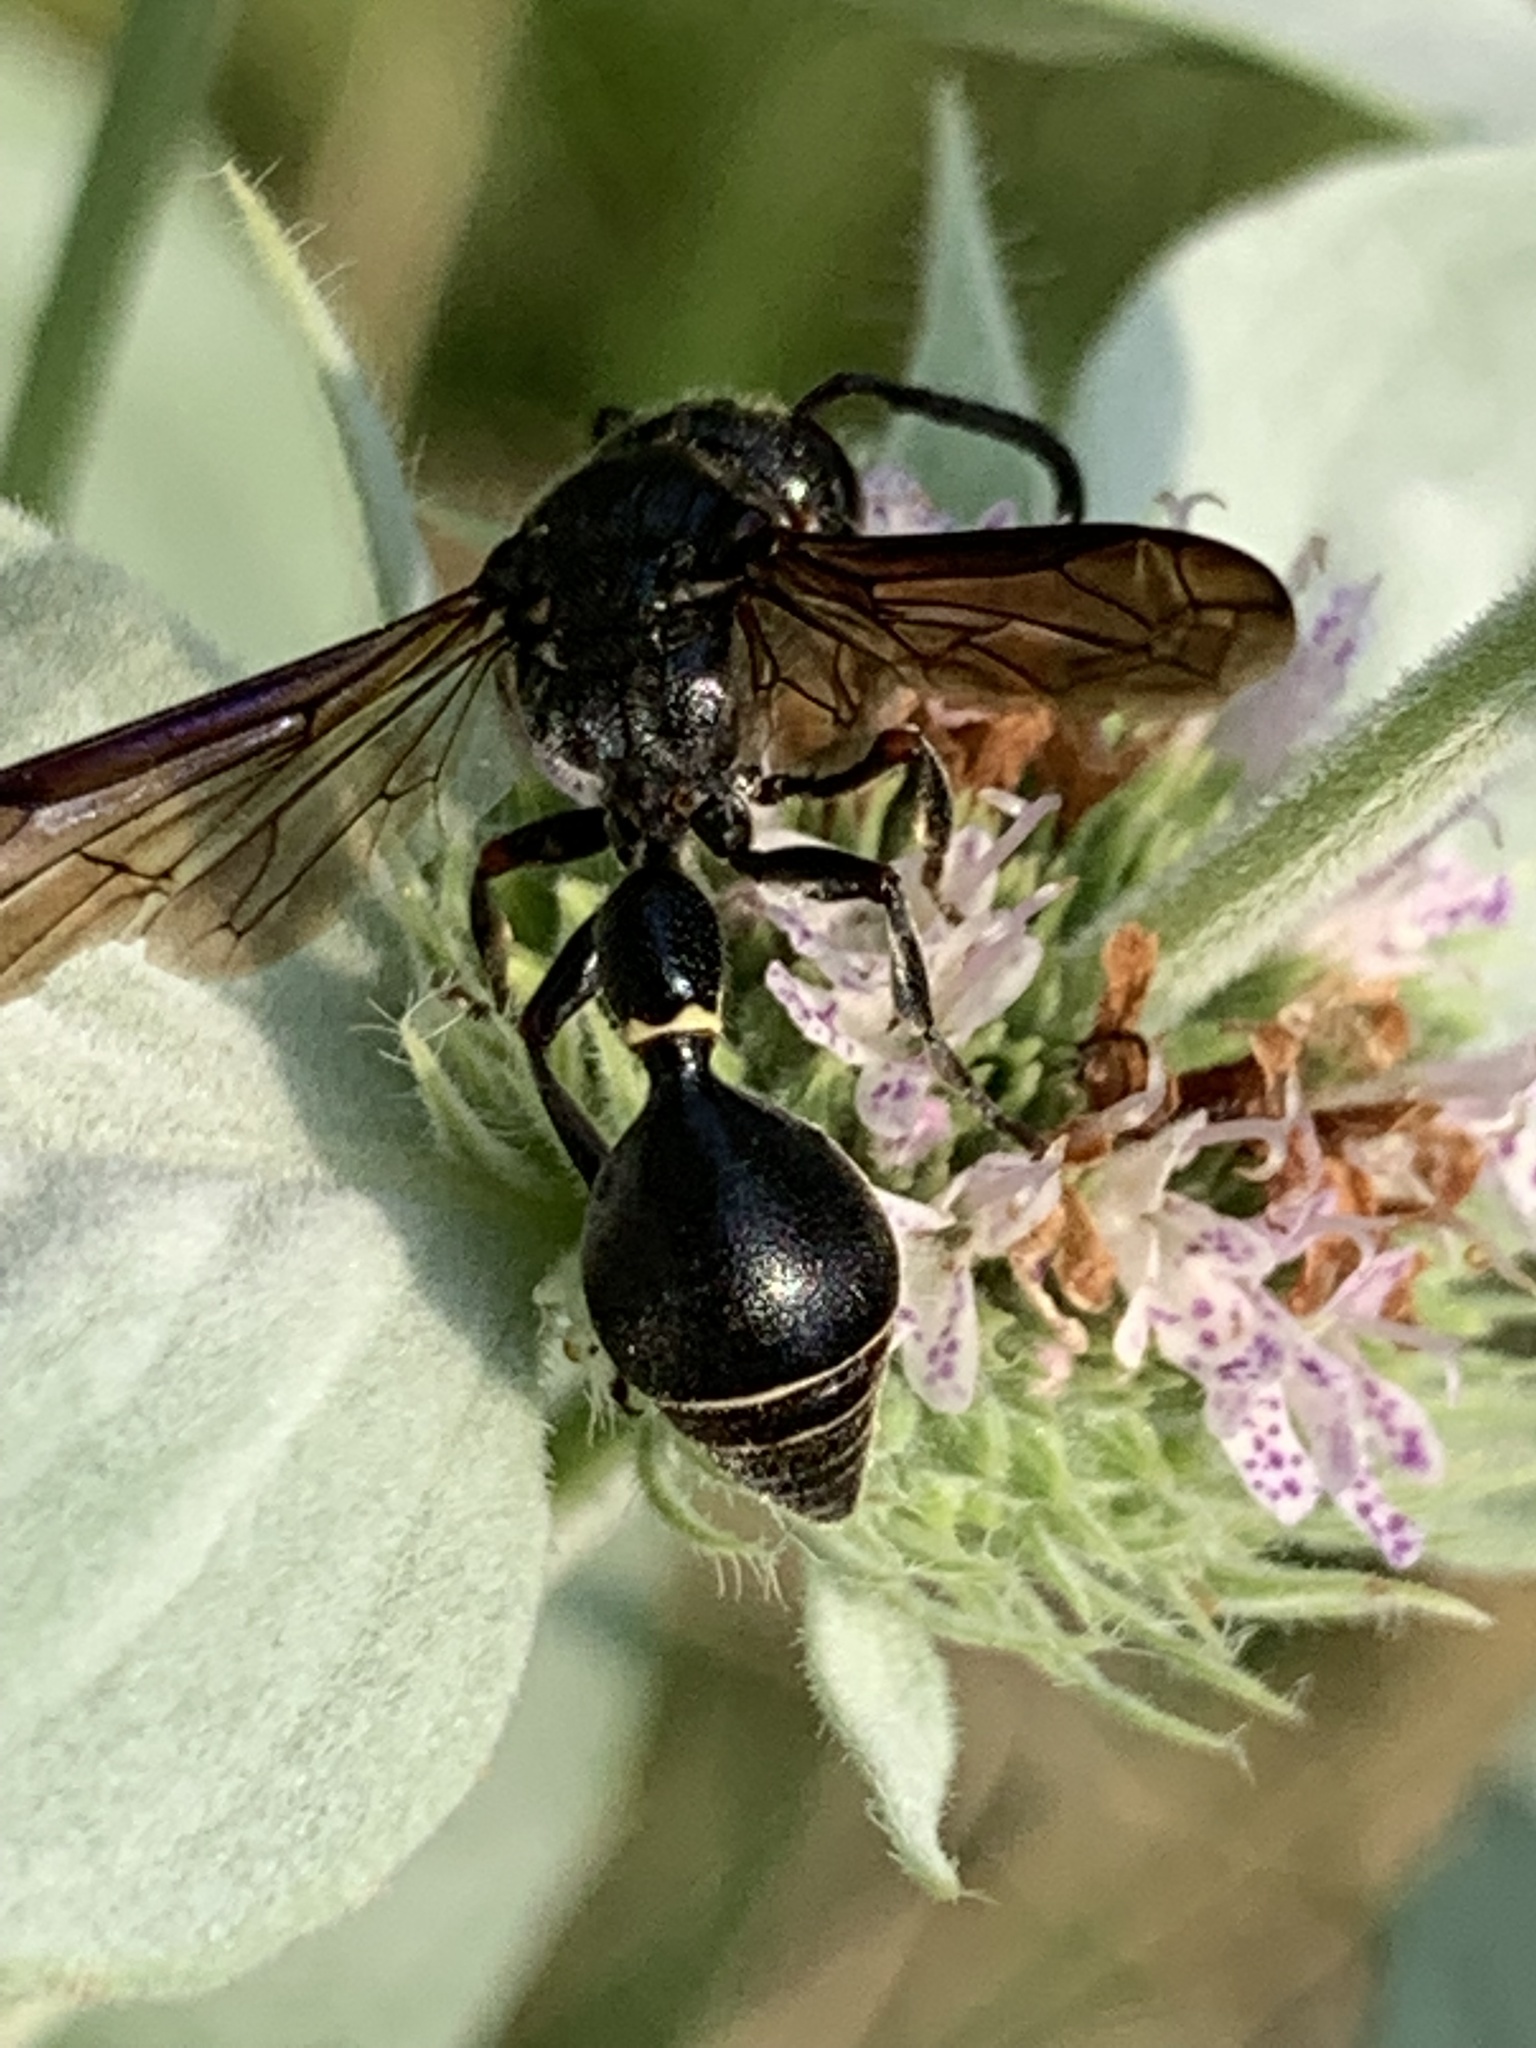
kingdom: Animalia
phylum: Arthropoda
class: Insecta
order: Hymenoptera
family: Eumenidae
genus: Zethus
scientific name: Zethus spinipes
